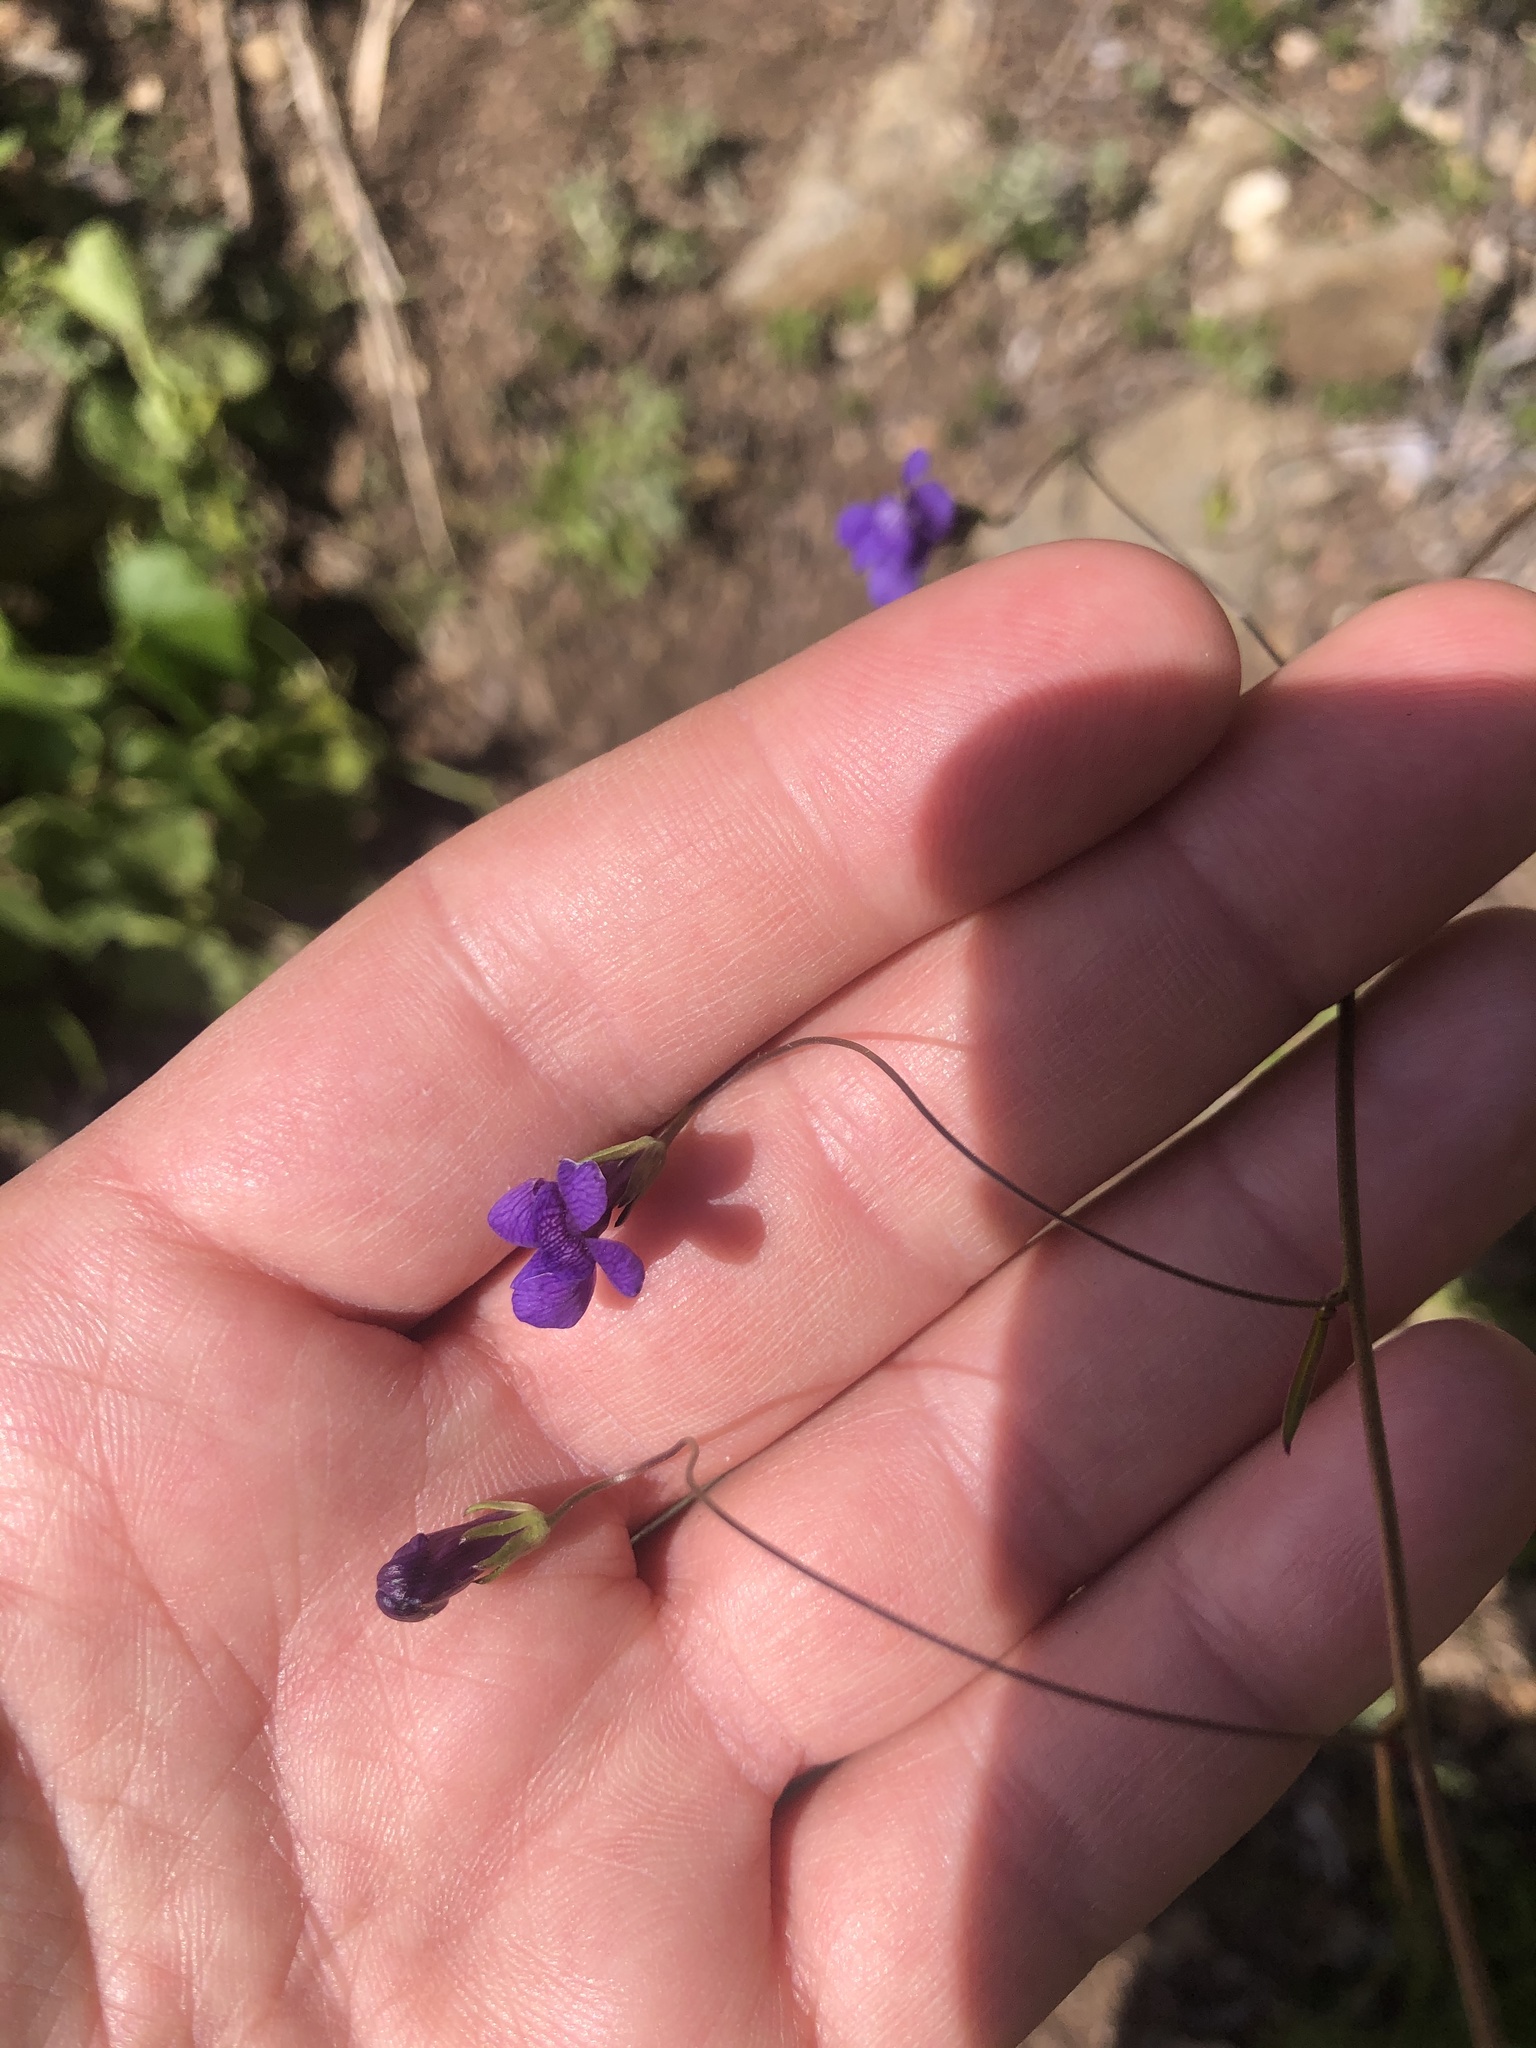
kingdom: Plantae
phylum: Tracheophyta
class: Magnoliopsida
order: Lamiales
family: Plantaginaceae
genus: Neogaerrhinum
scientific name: Neogaerrhinum strictum
